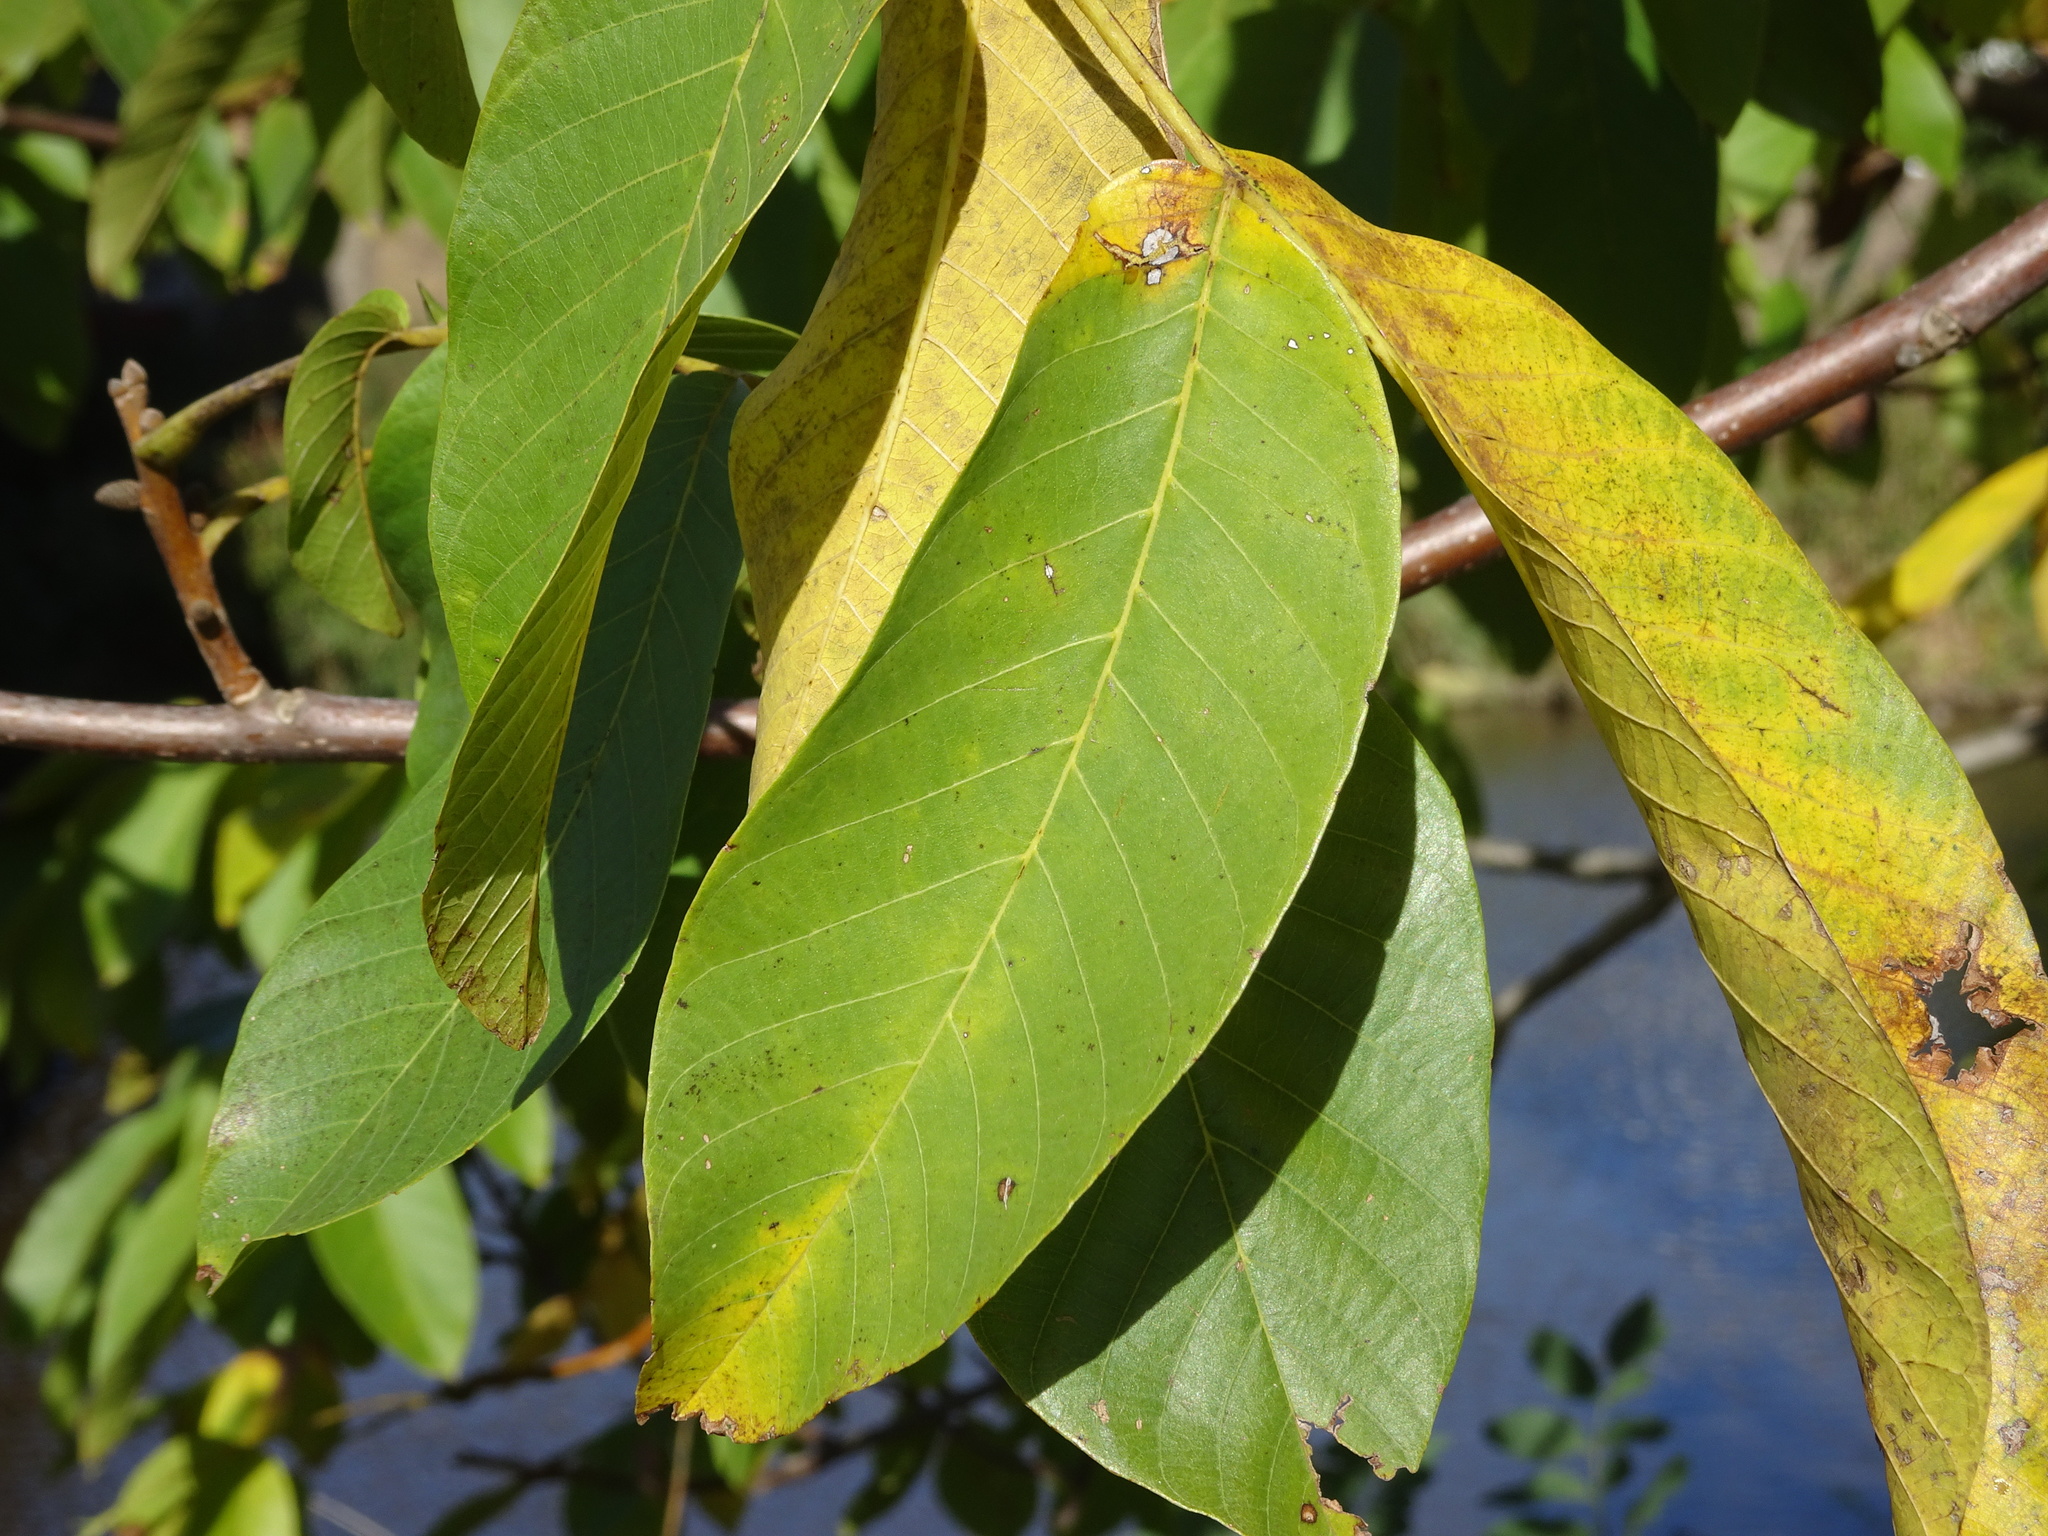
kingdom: Plantae
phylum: Tracheophyta
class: Magnoliopsida
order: Fagales
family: Juglandaceae
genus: Juglans
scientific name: Juglans regia
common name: Walnut
